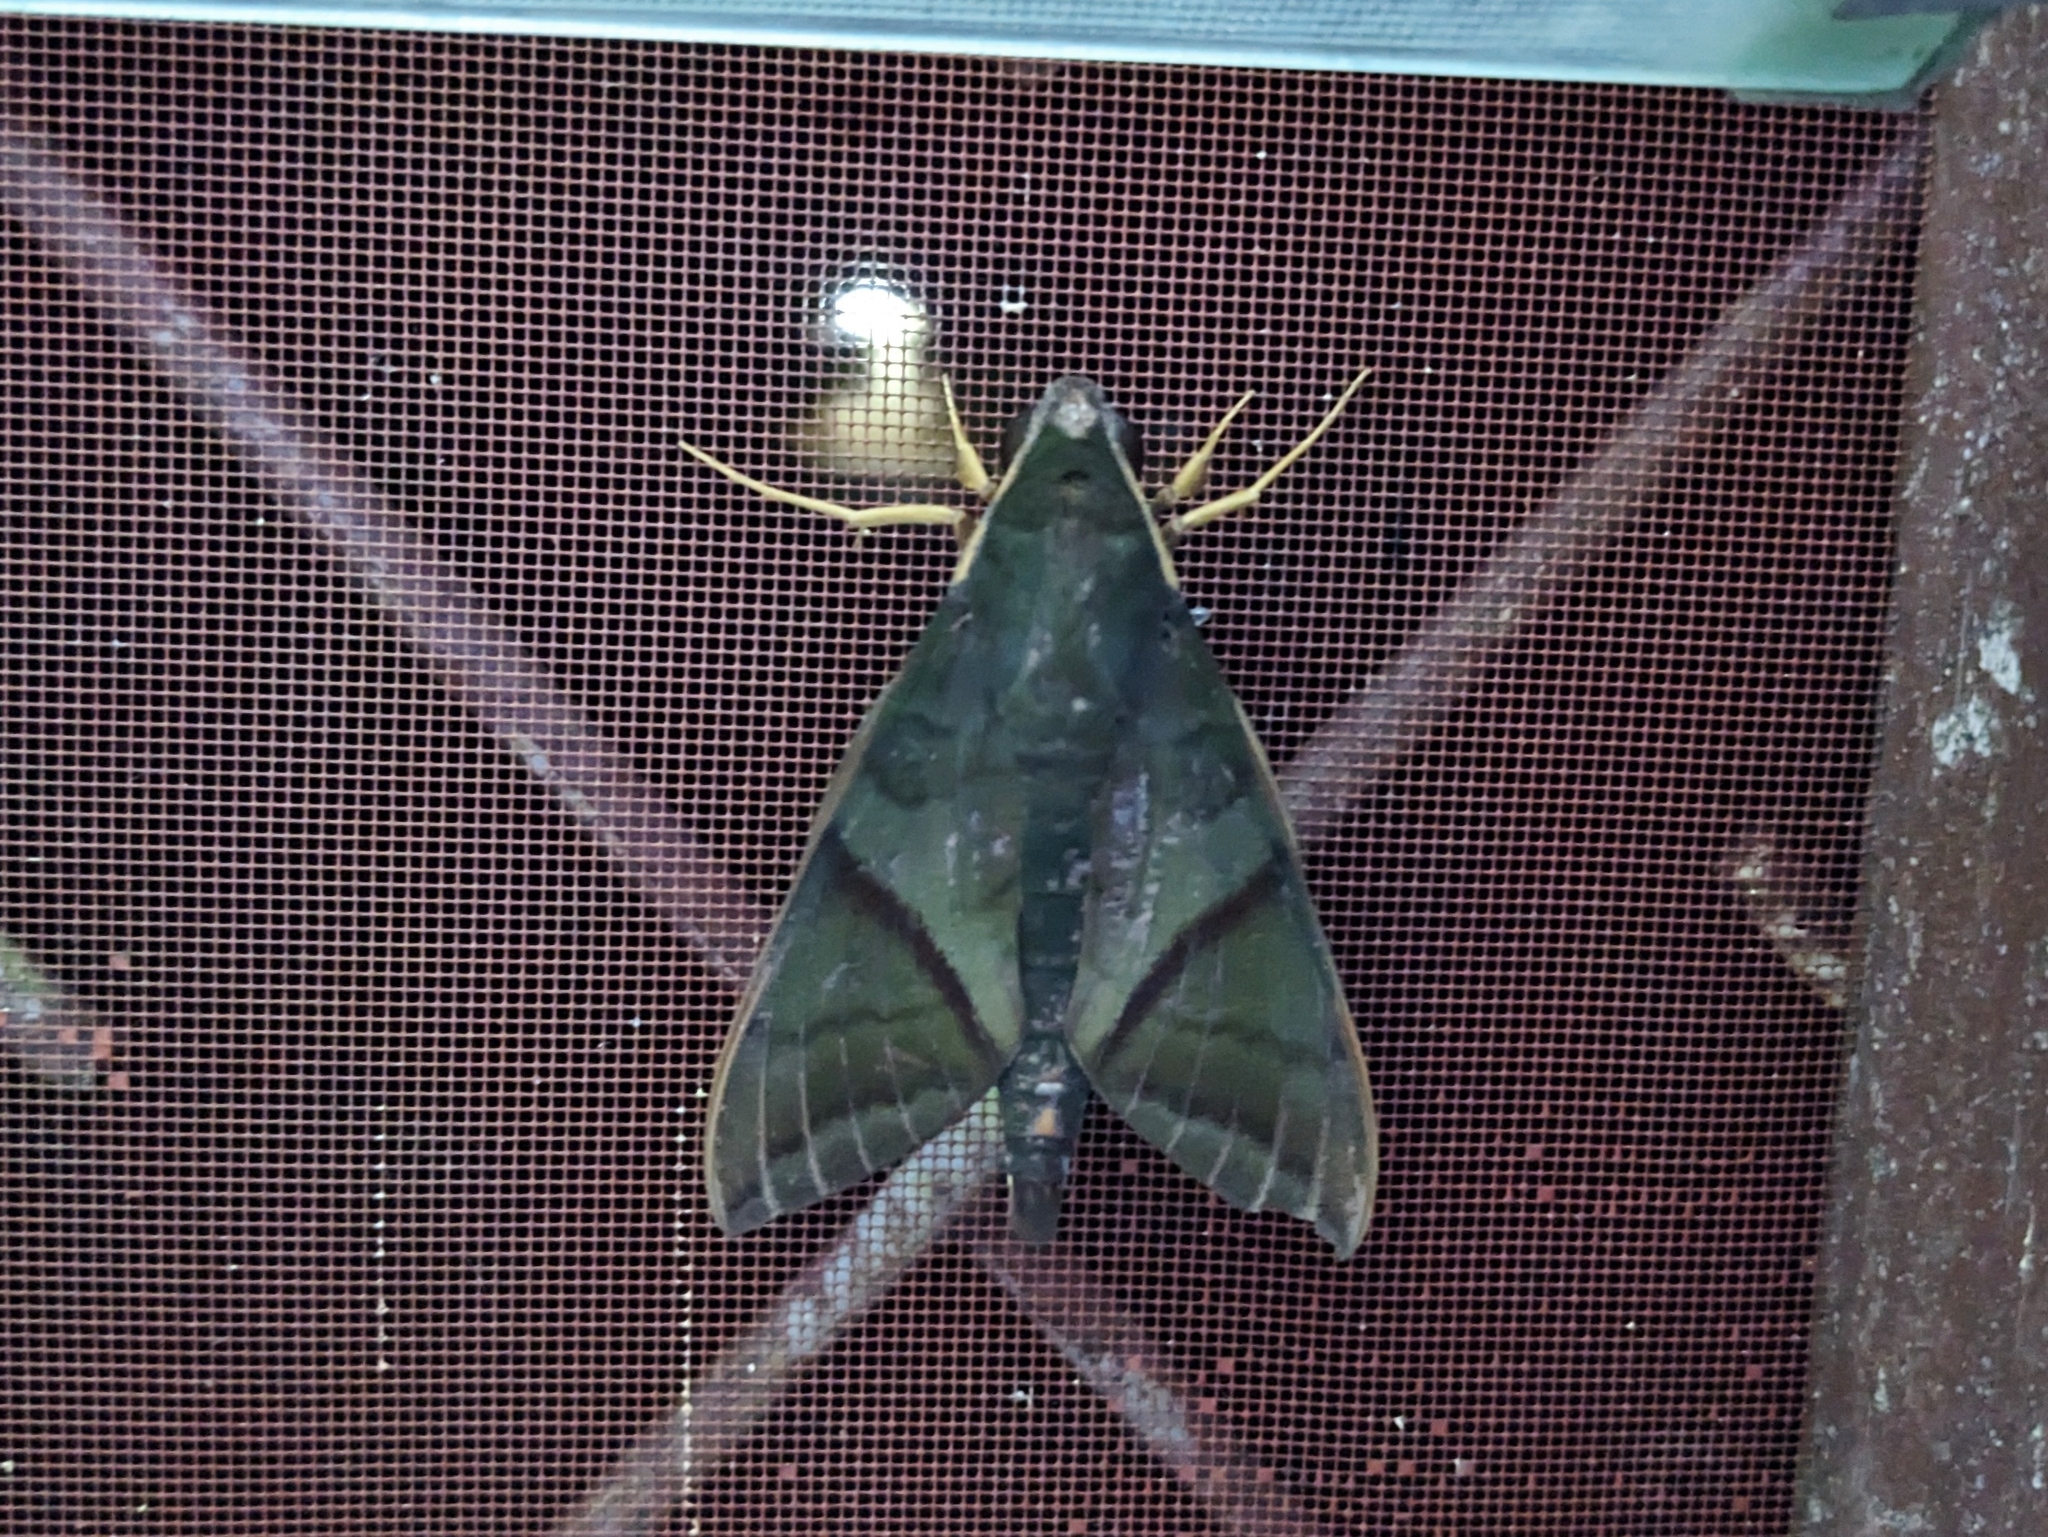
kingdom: Animalia
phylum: Arthropoda
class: Insecta
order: Lepidoptera
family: Sphingidae
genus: Nephele
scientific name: Nephele aequivalens
